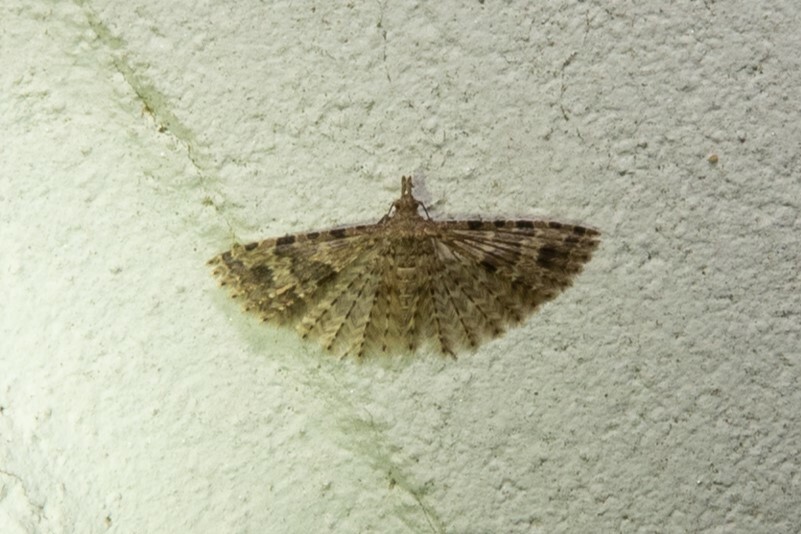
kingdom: Animalia
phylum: Arthropoda
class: Insecta
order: Lepidoptera
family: Alucitidae
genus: Alucita
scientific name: Alucita hexadactyla
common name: Twenty-plume moth
